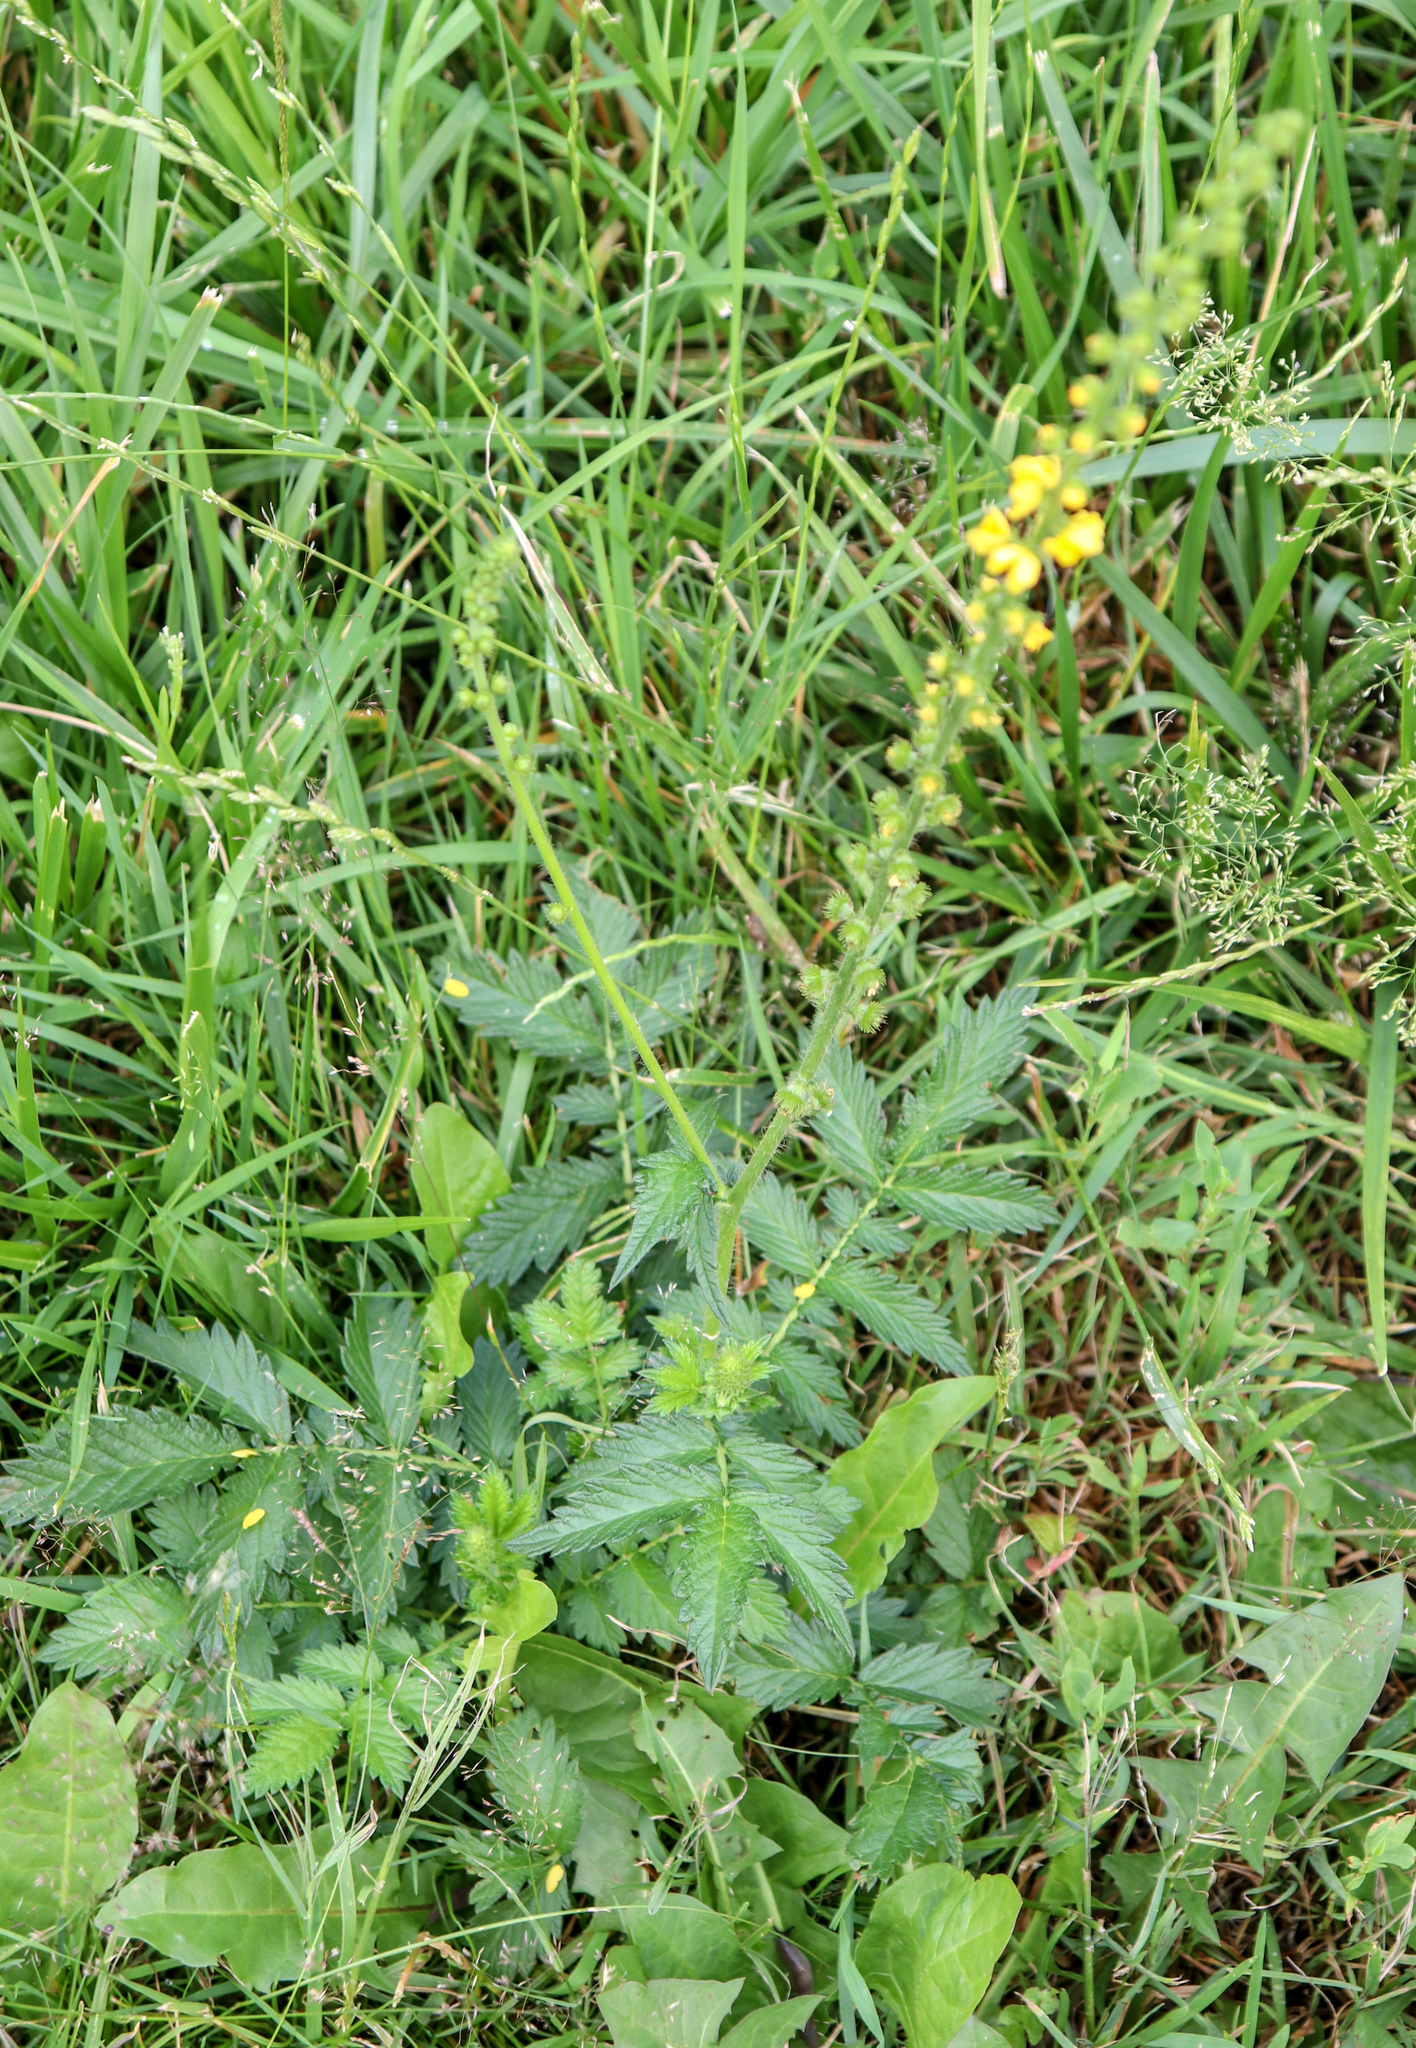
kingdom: Plantae
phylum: Tracheophyta
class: Magnoliopsida
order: Rosales
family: Rosaceae
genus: Agrimonia
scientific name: Agrimonia eupatoria
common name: Agrimony
